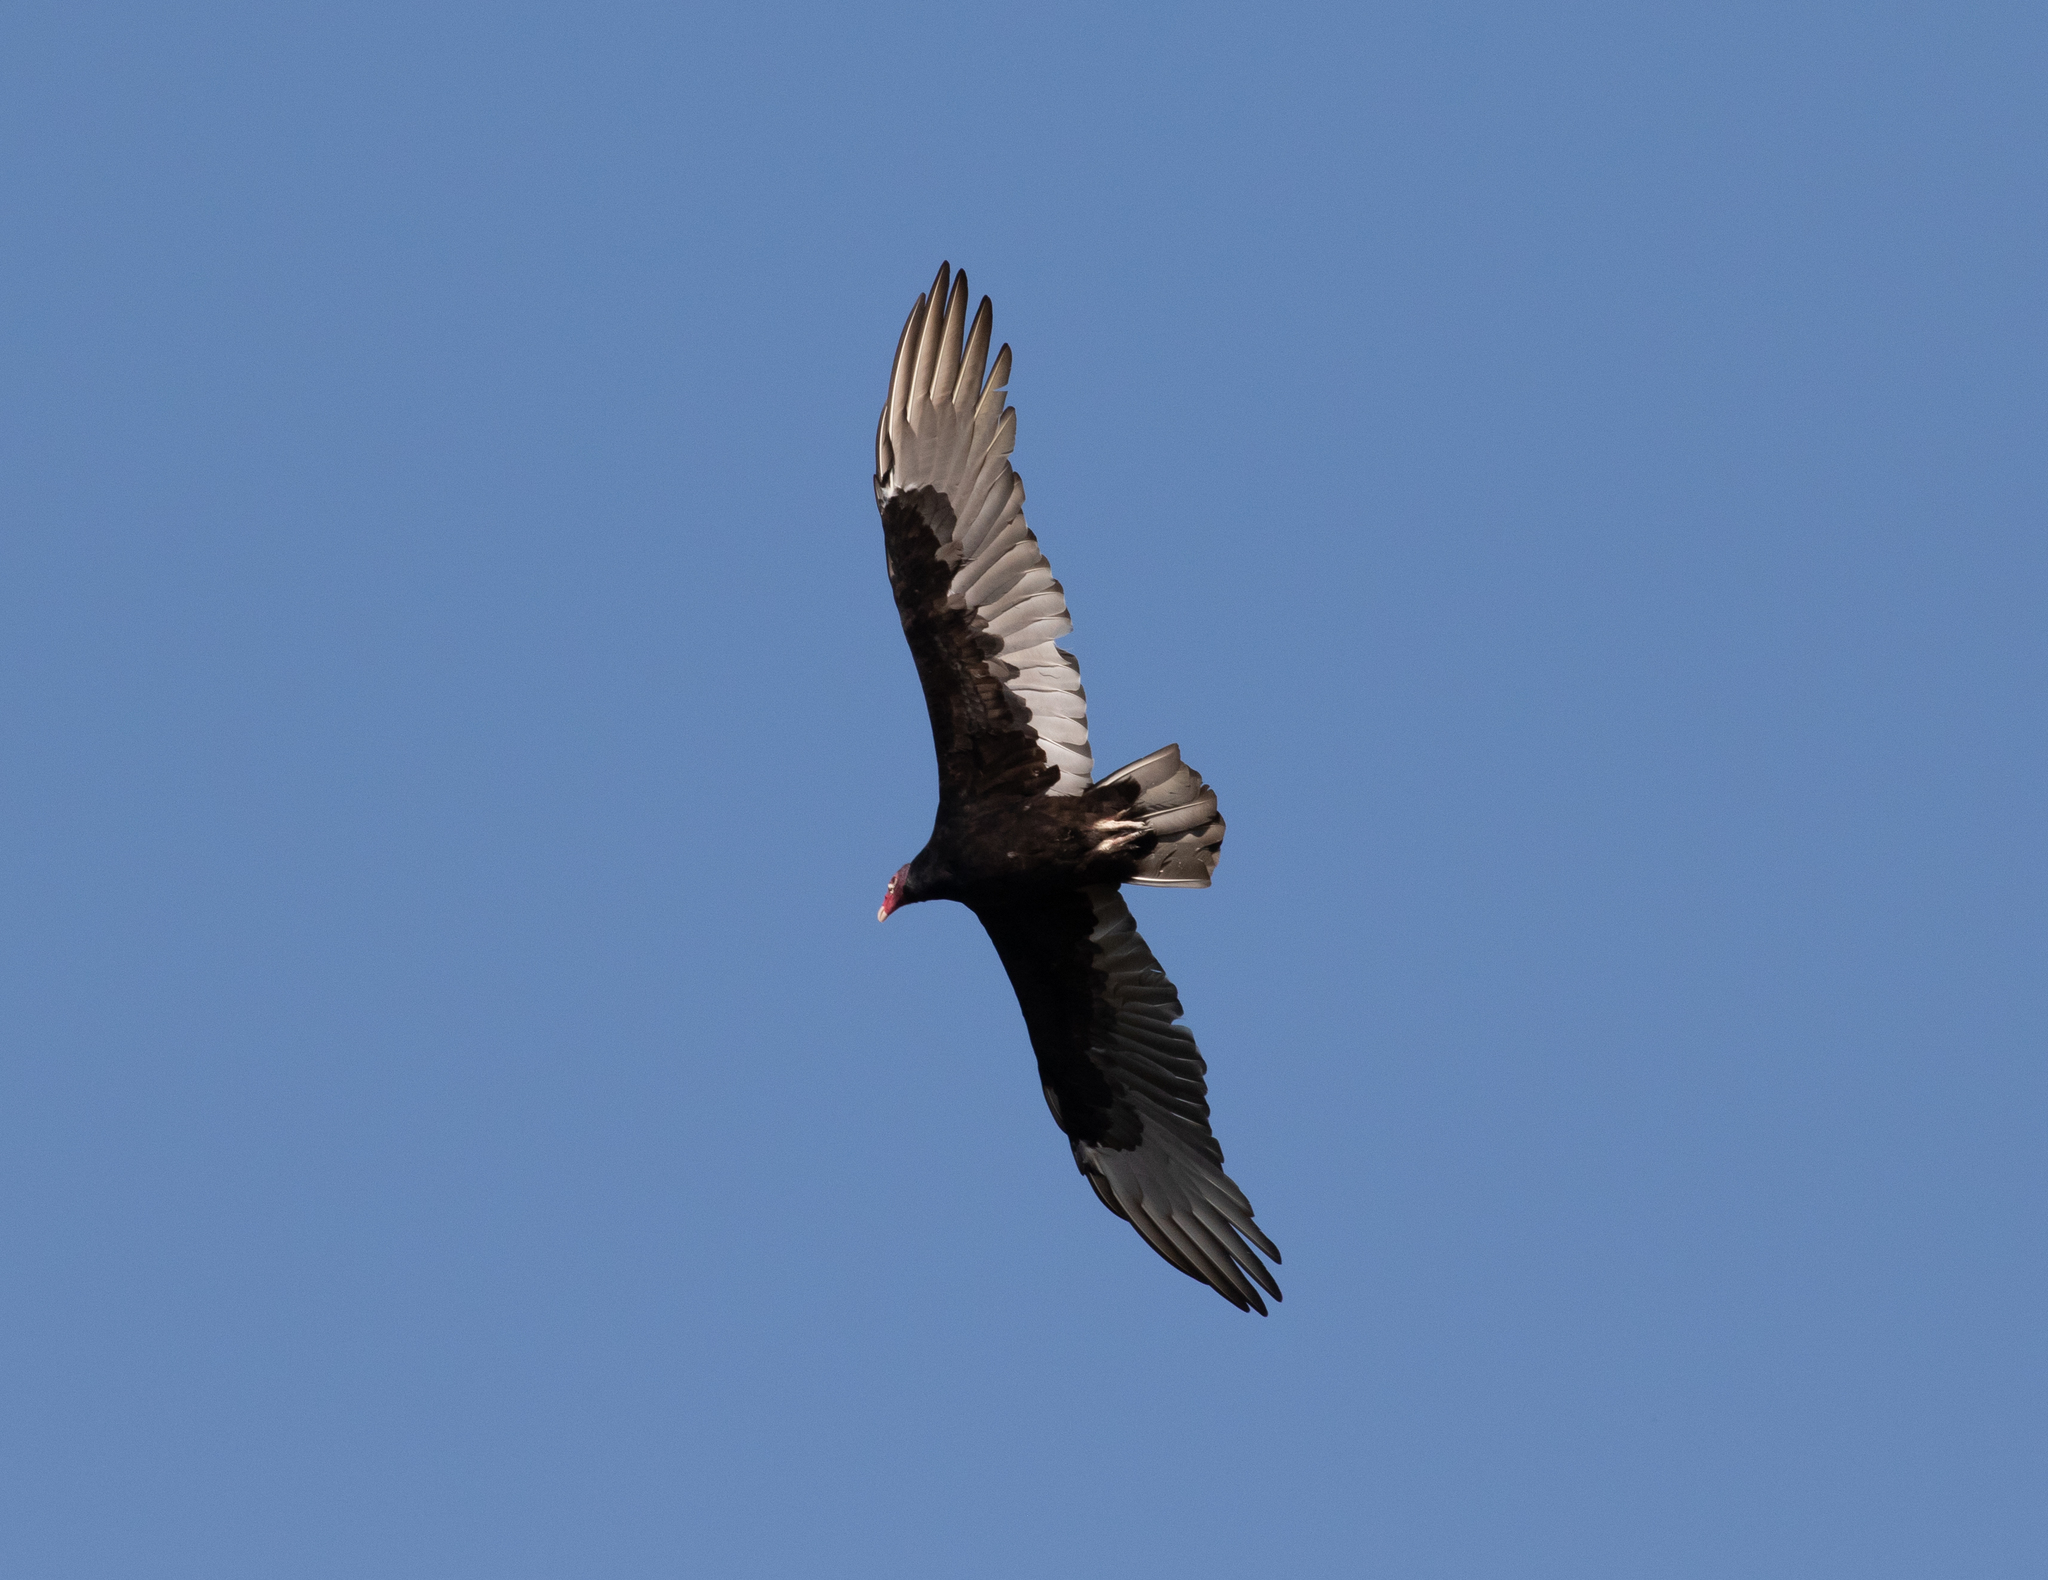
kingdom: Animalia
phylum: Chordata
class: Aves
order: Accipitriformes
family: Cathartidae
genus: Cathartes
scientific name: Cathartes aura
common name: Turkey vulture
